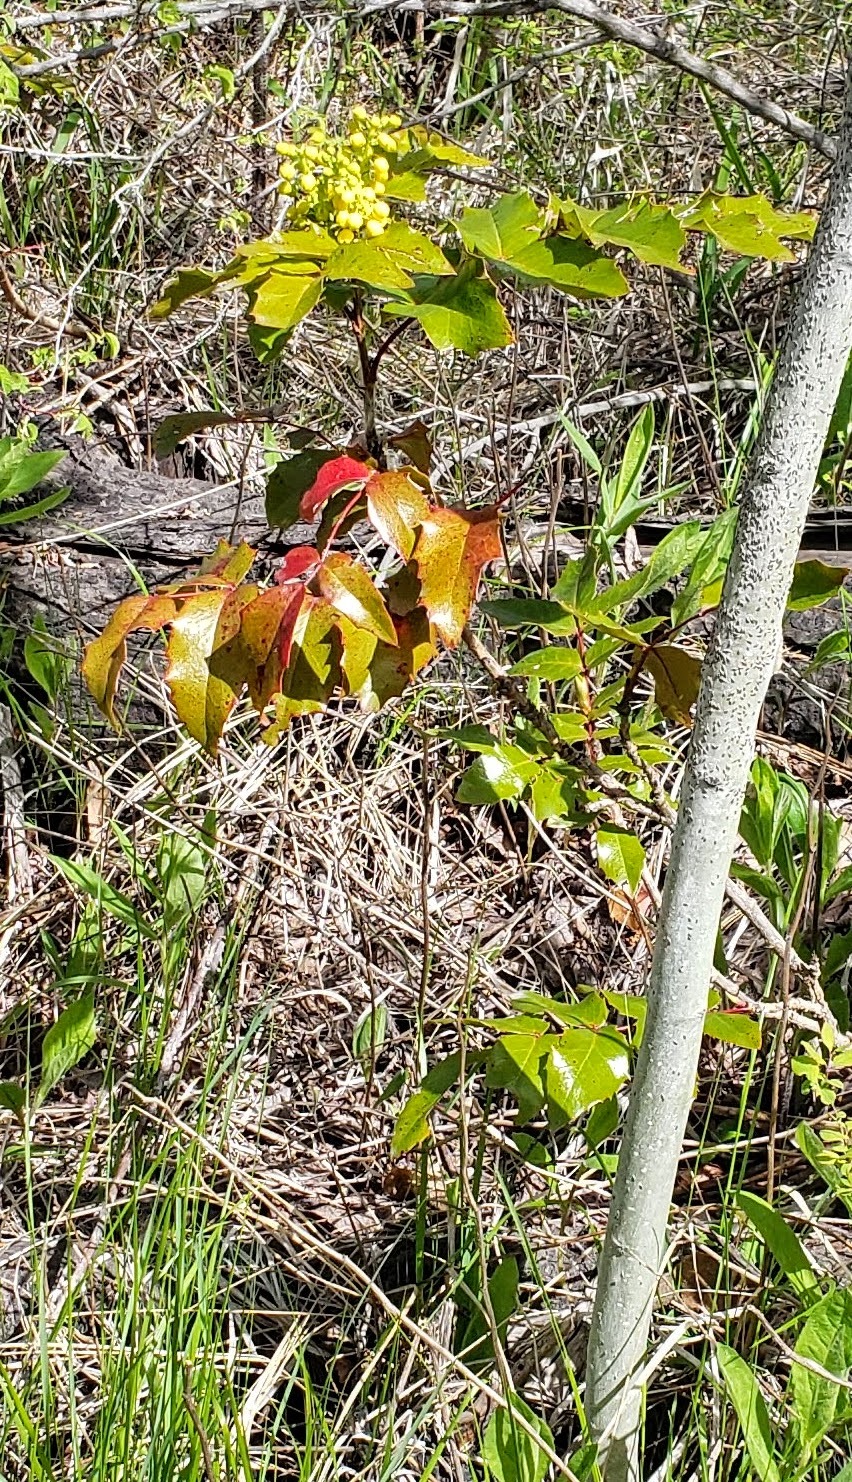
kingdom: Plantae
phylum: Tracheophyta
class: Magnoliopsida
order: Ranunculales
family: Berberidaceae
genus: Mahonia
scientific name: Mahonia aquifolium
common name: Oregon-grape
